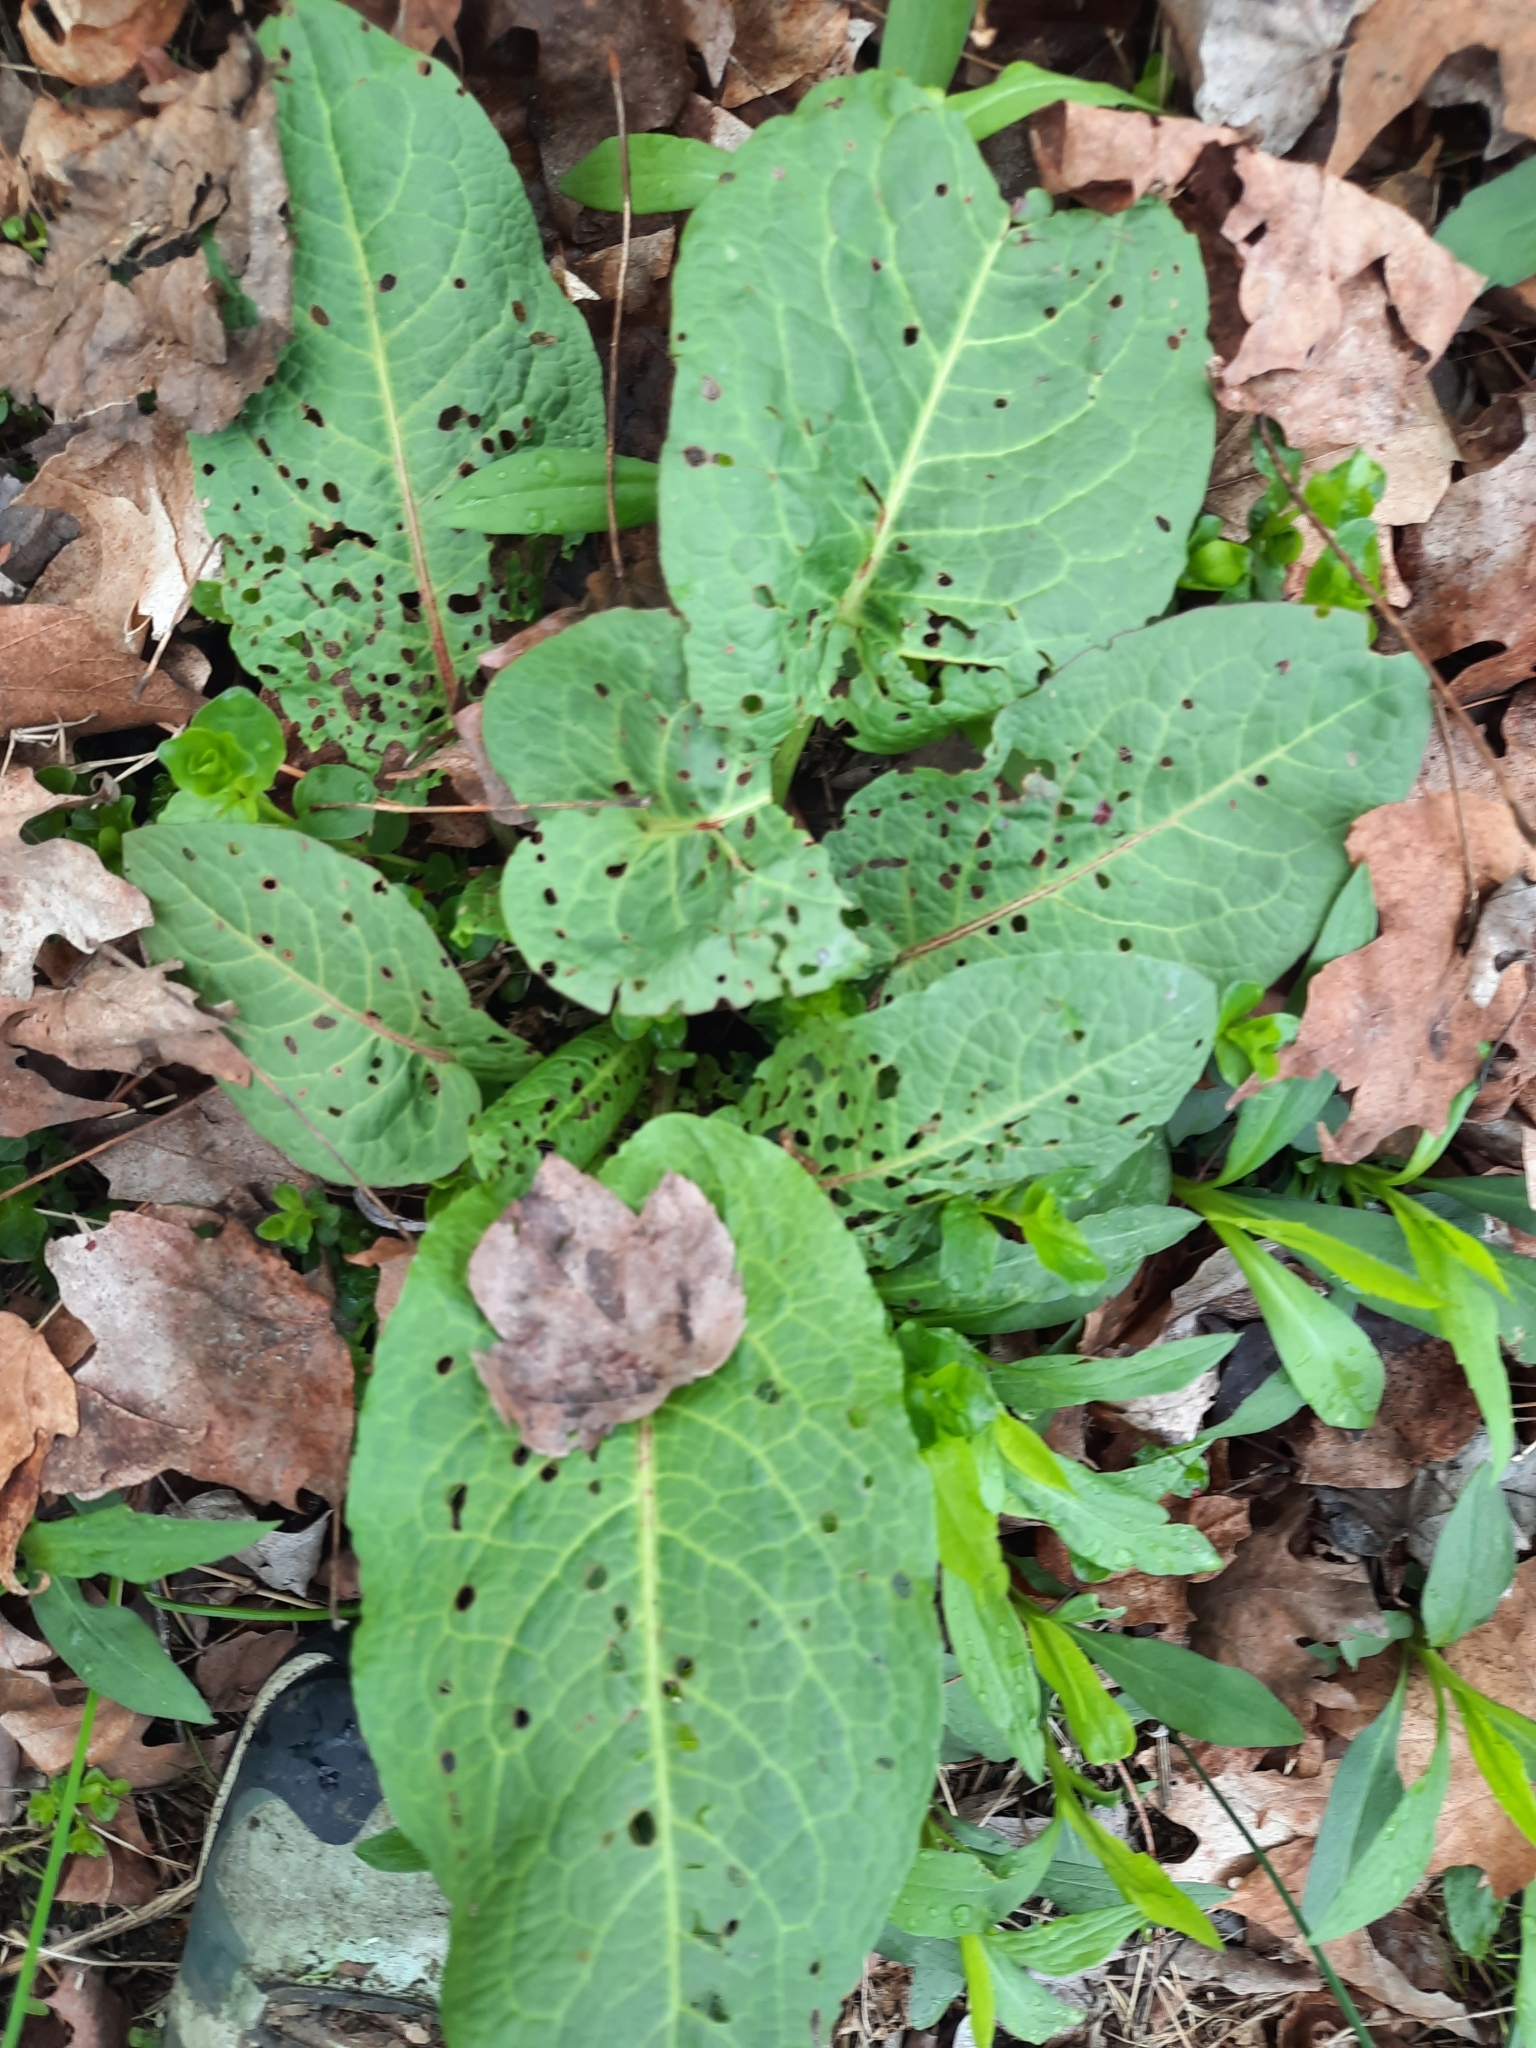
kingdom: Plantae
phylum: Tracheophyta
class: Magnoliopsida
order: Caryophyllales
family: Polygonaceae
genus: Rumex
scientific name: Rumex obtusifolius
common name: Bitter dock
